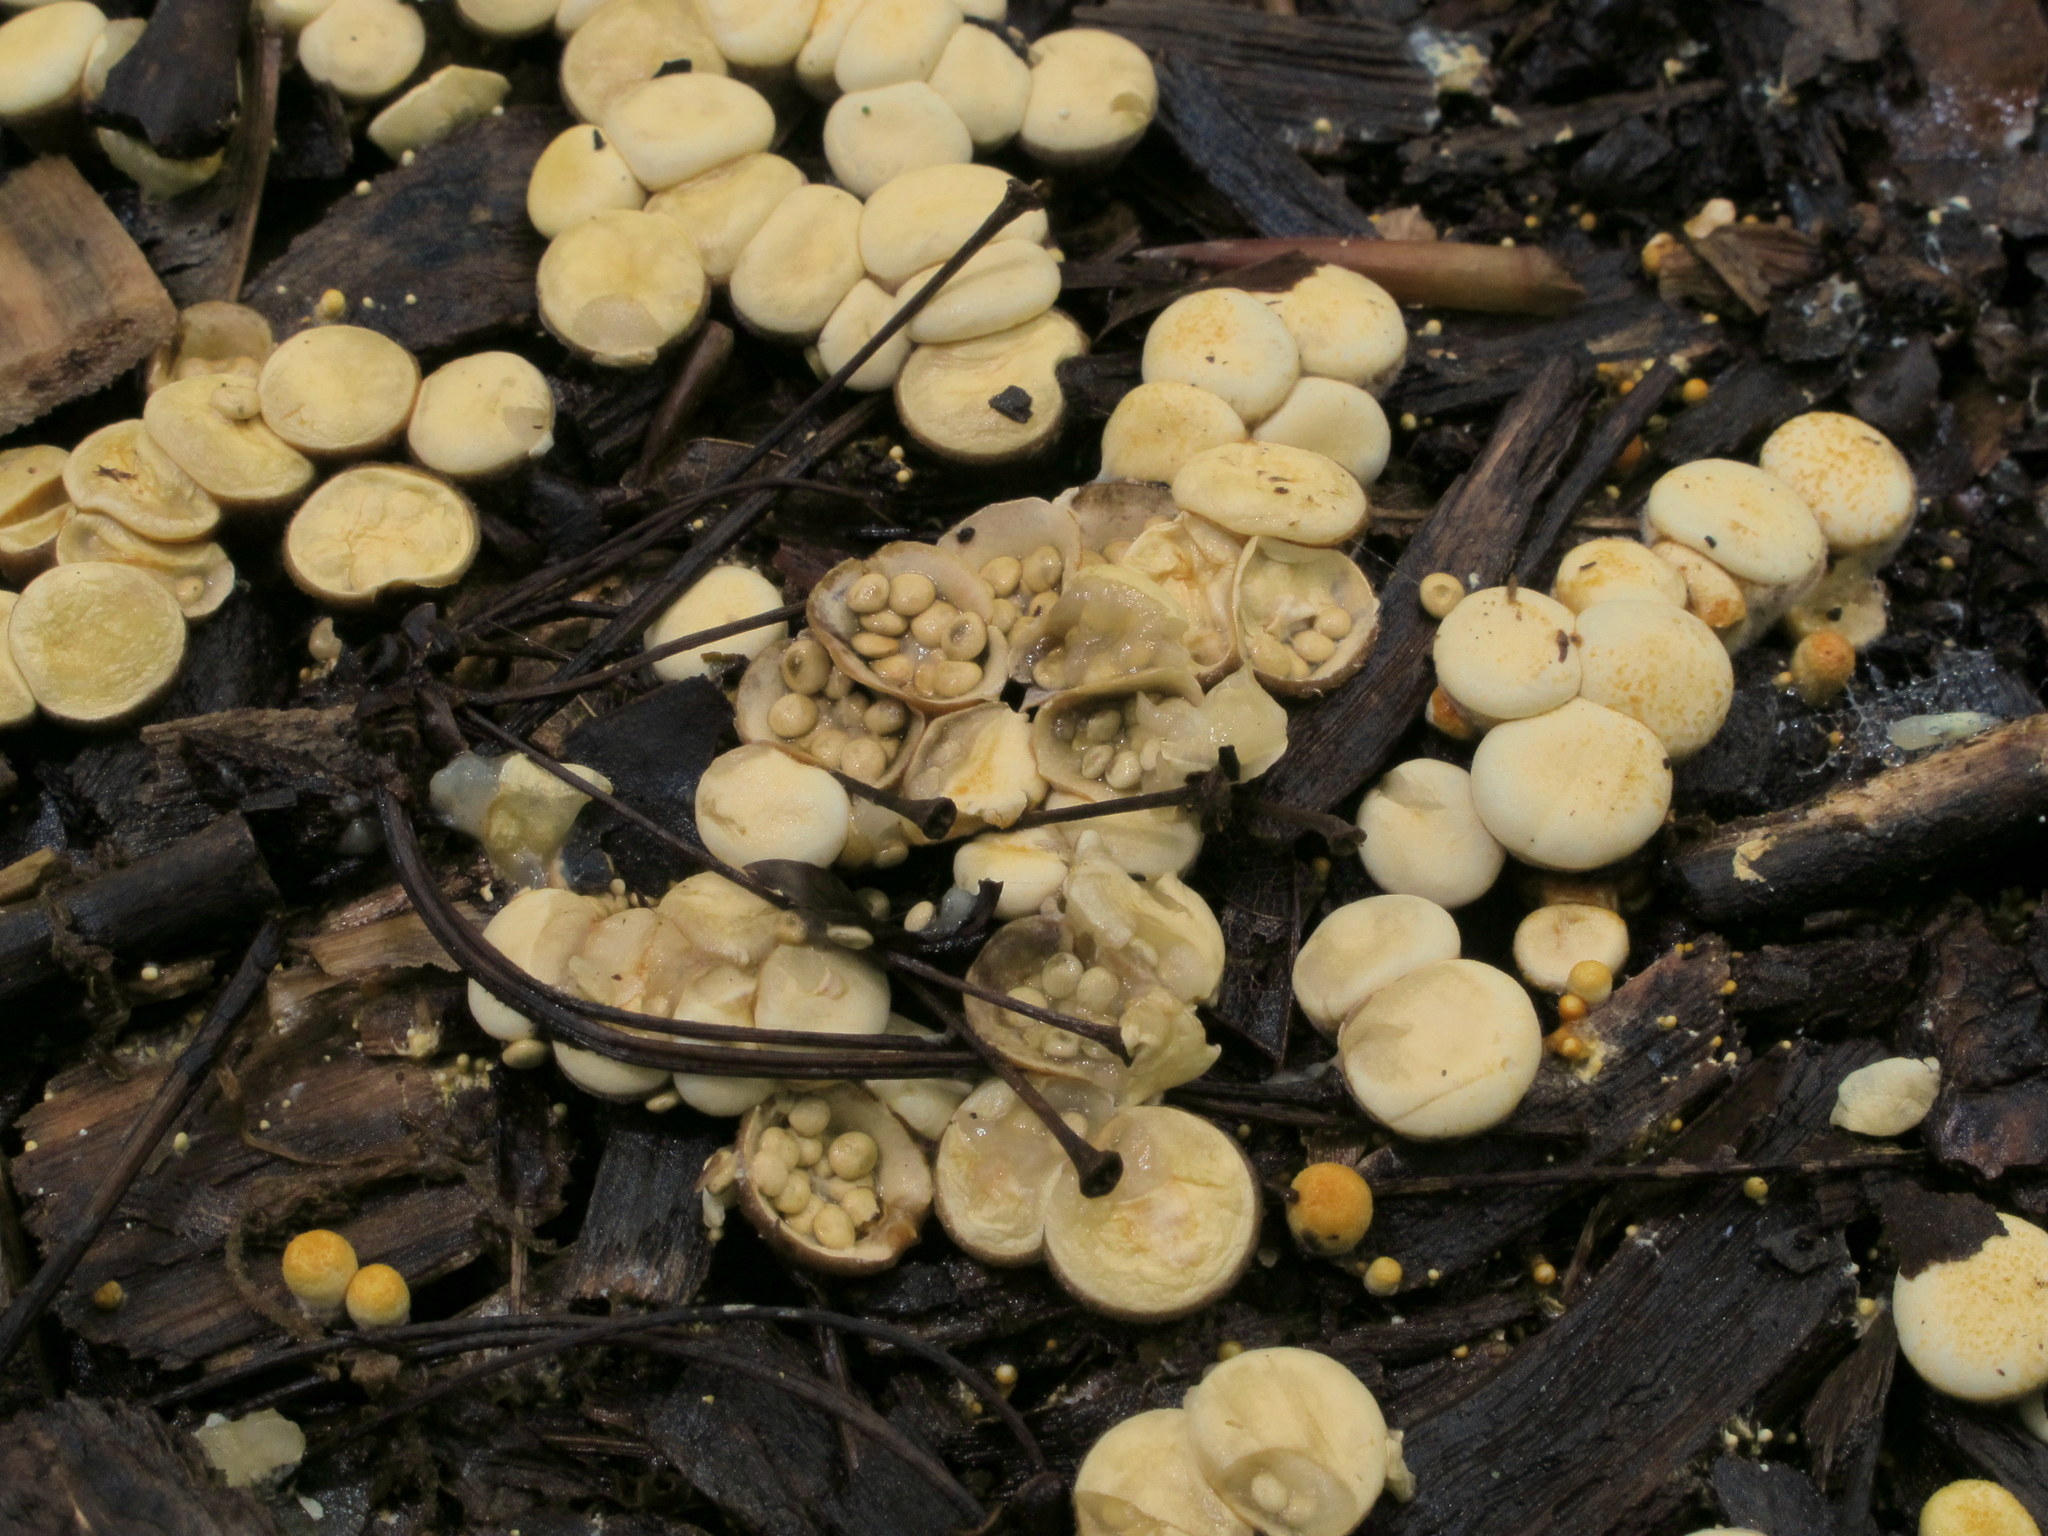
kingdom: Fungi
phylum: Basidiomycota
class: Agaricomycetes
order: Agaricales
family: Nidulariaceae
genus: Crucibulum
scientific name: Crucibulum laeve
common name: Common bird's nest
